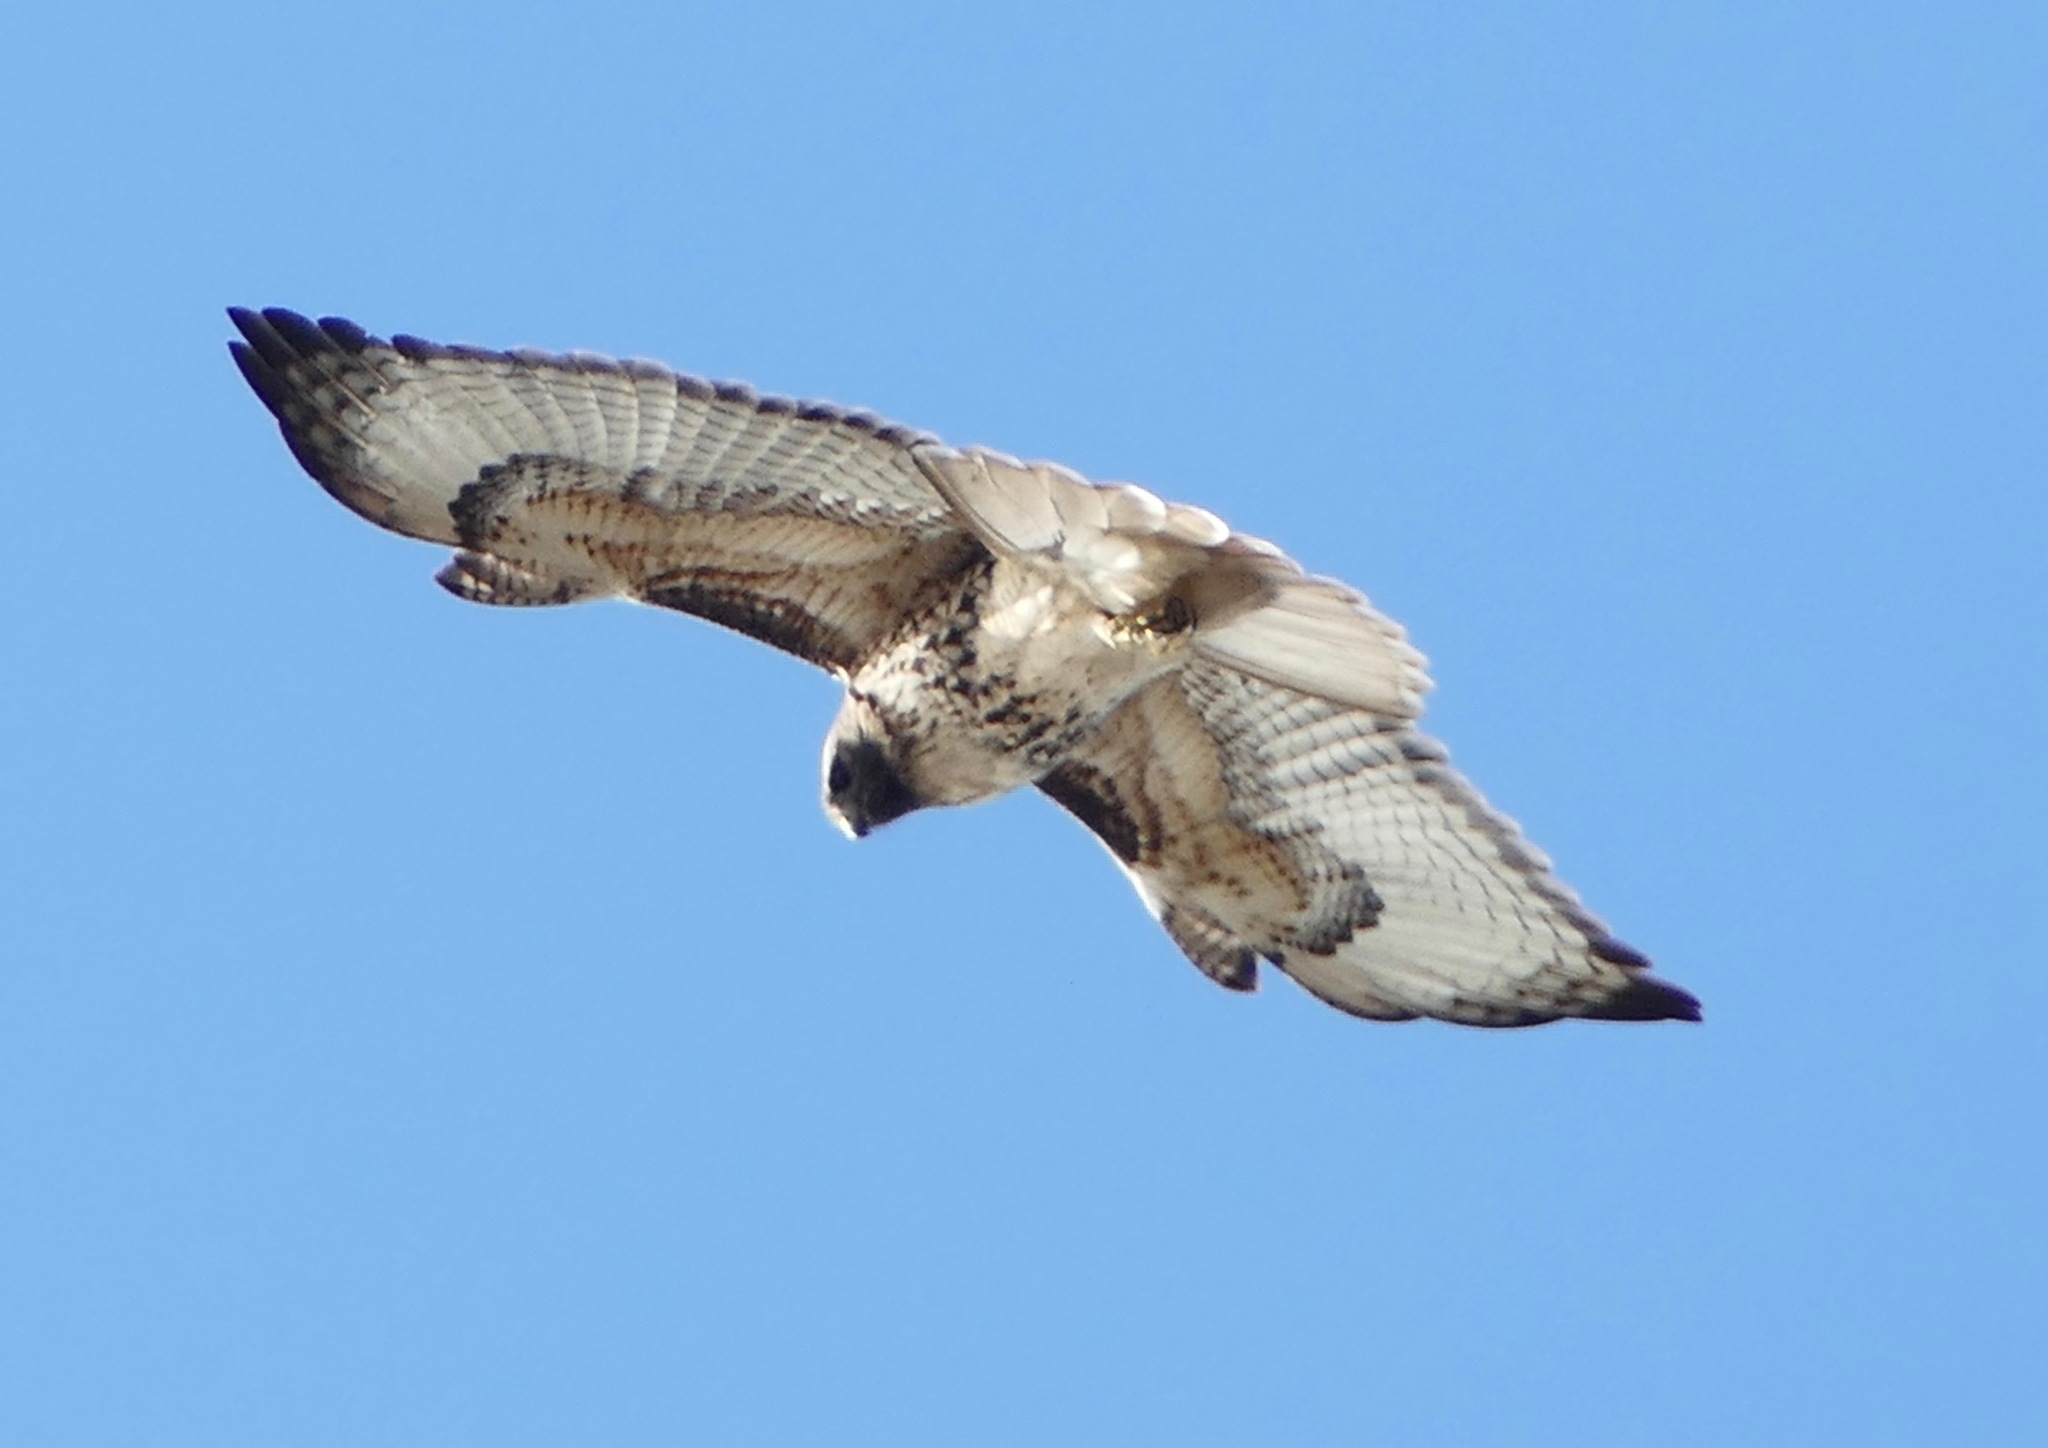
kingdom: Animalia
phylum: Chordata
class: Aves
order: Accipitriformes
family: Accipitridae
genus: Buteo
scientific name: Buteo jamaicensis
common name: Red-tailed hawk
